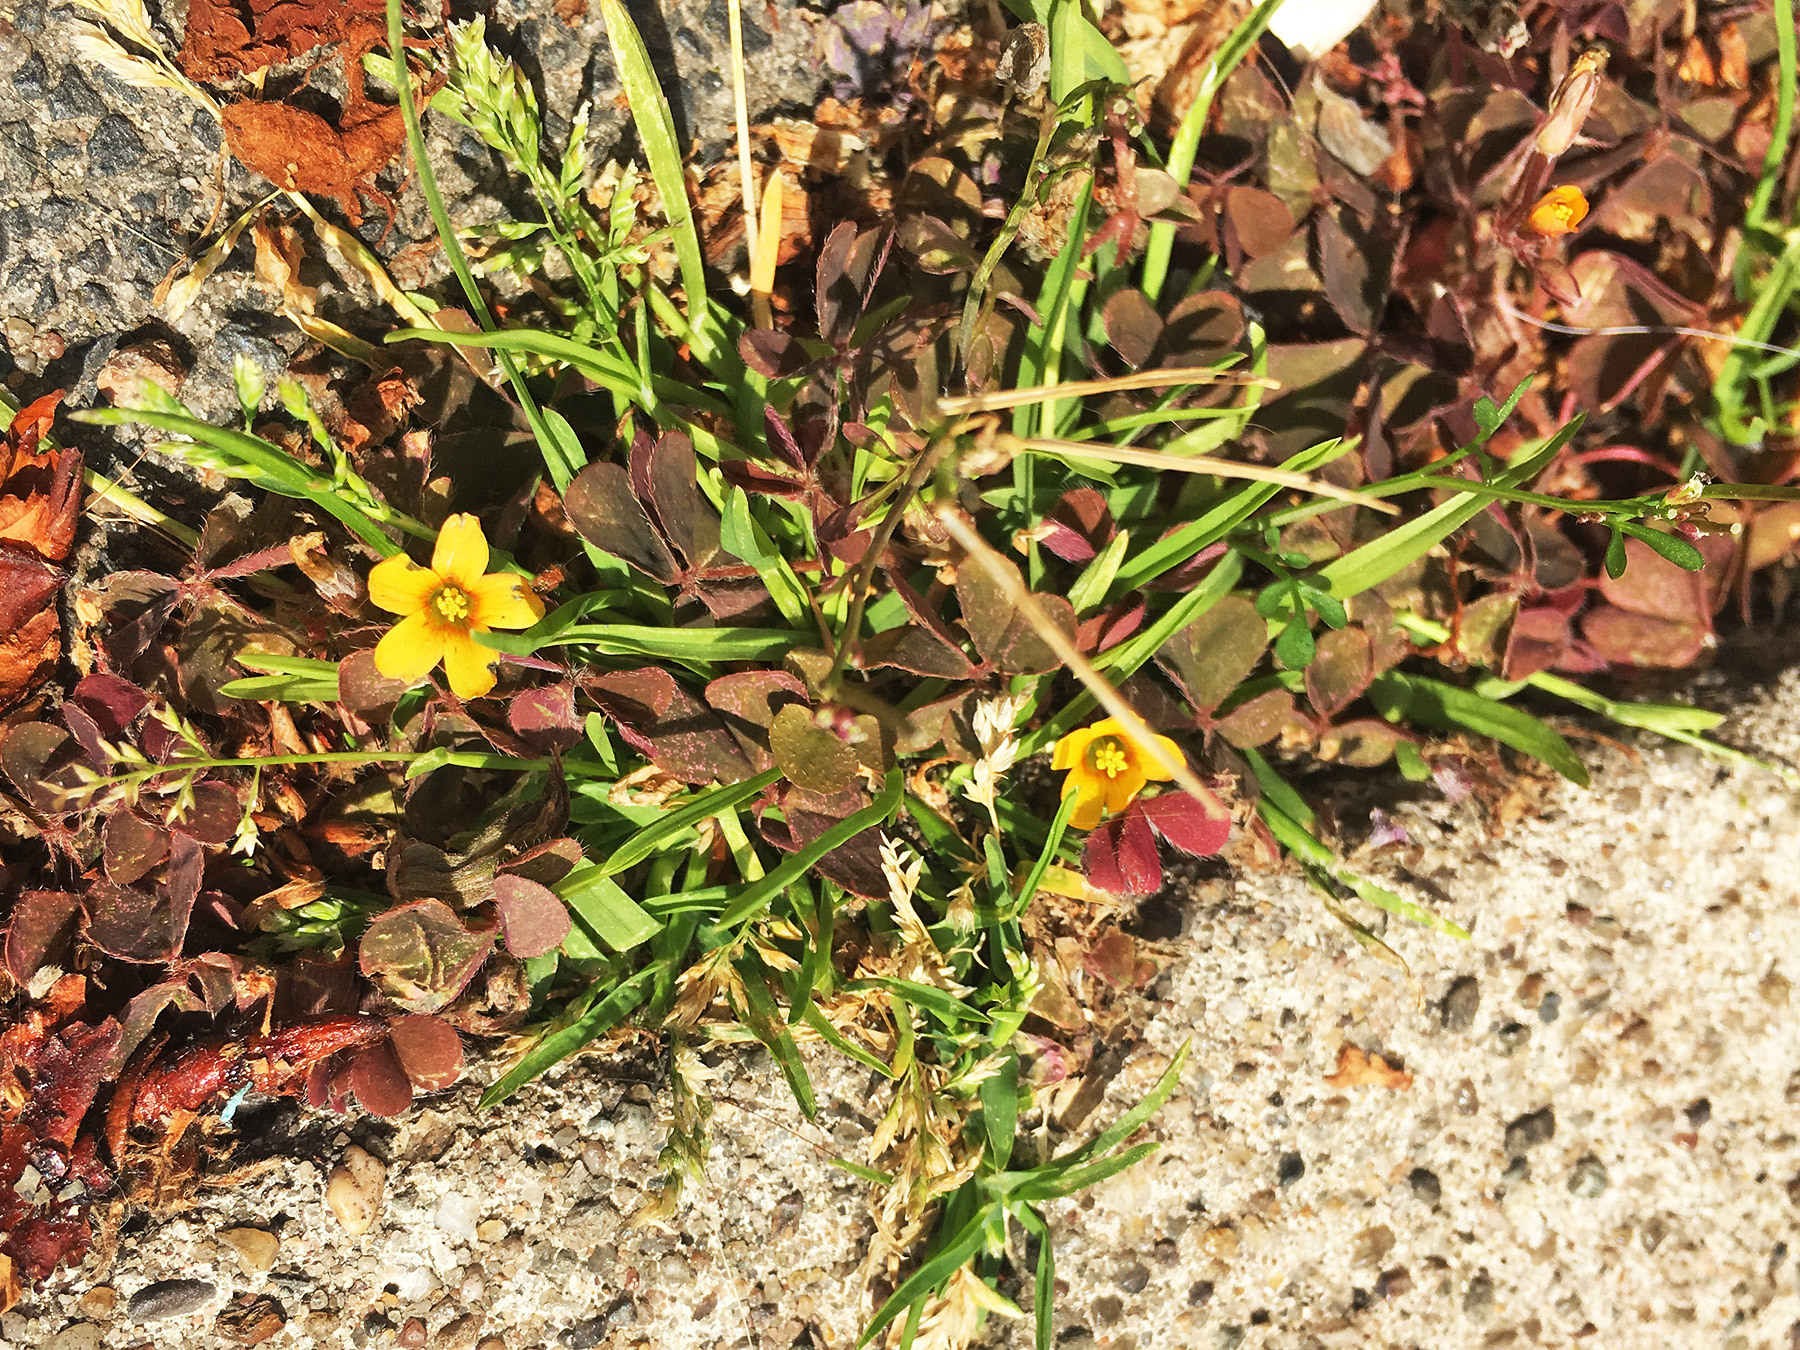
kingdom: Plantae
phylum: Tracheophyta
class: Magnoliopsida
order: Oxalidales
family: Oxalidaceae
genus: Oxalis
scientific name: Oxalis corniculata
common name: Procumbent yellow-sorrel
